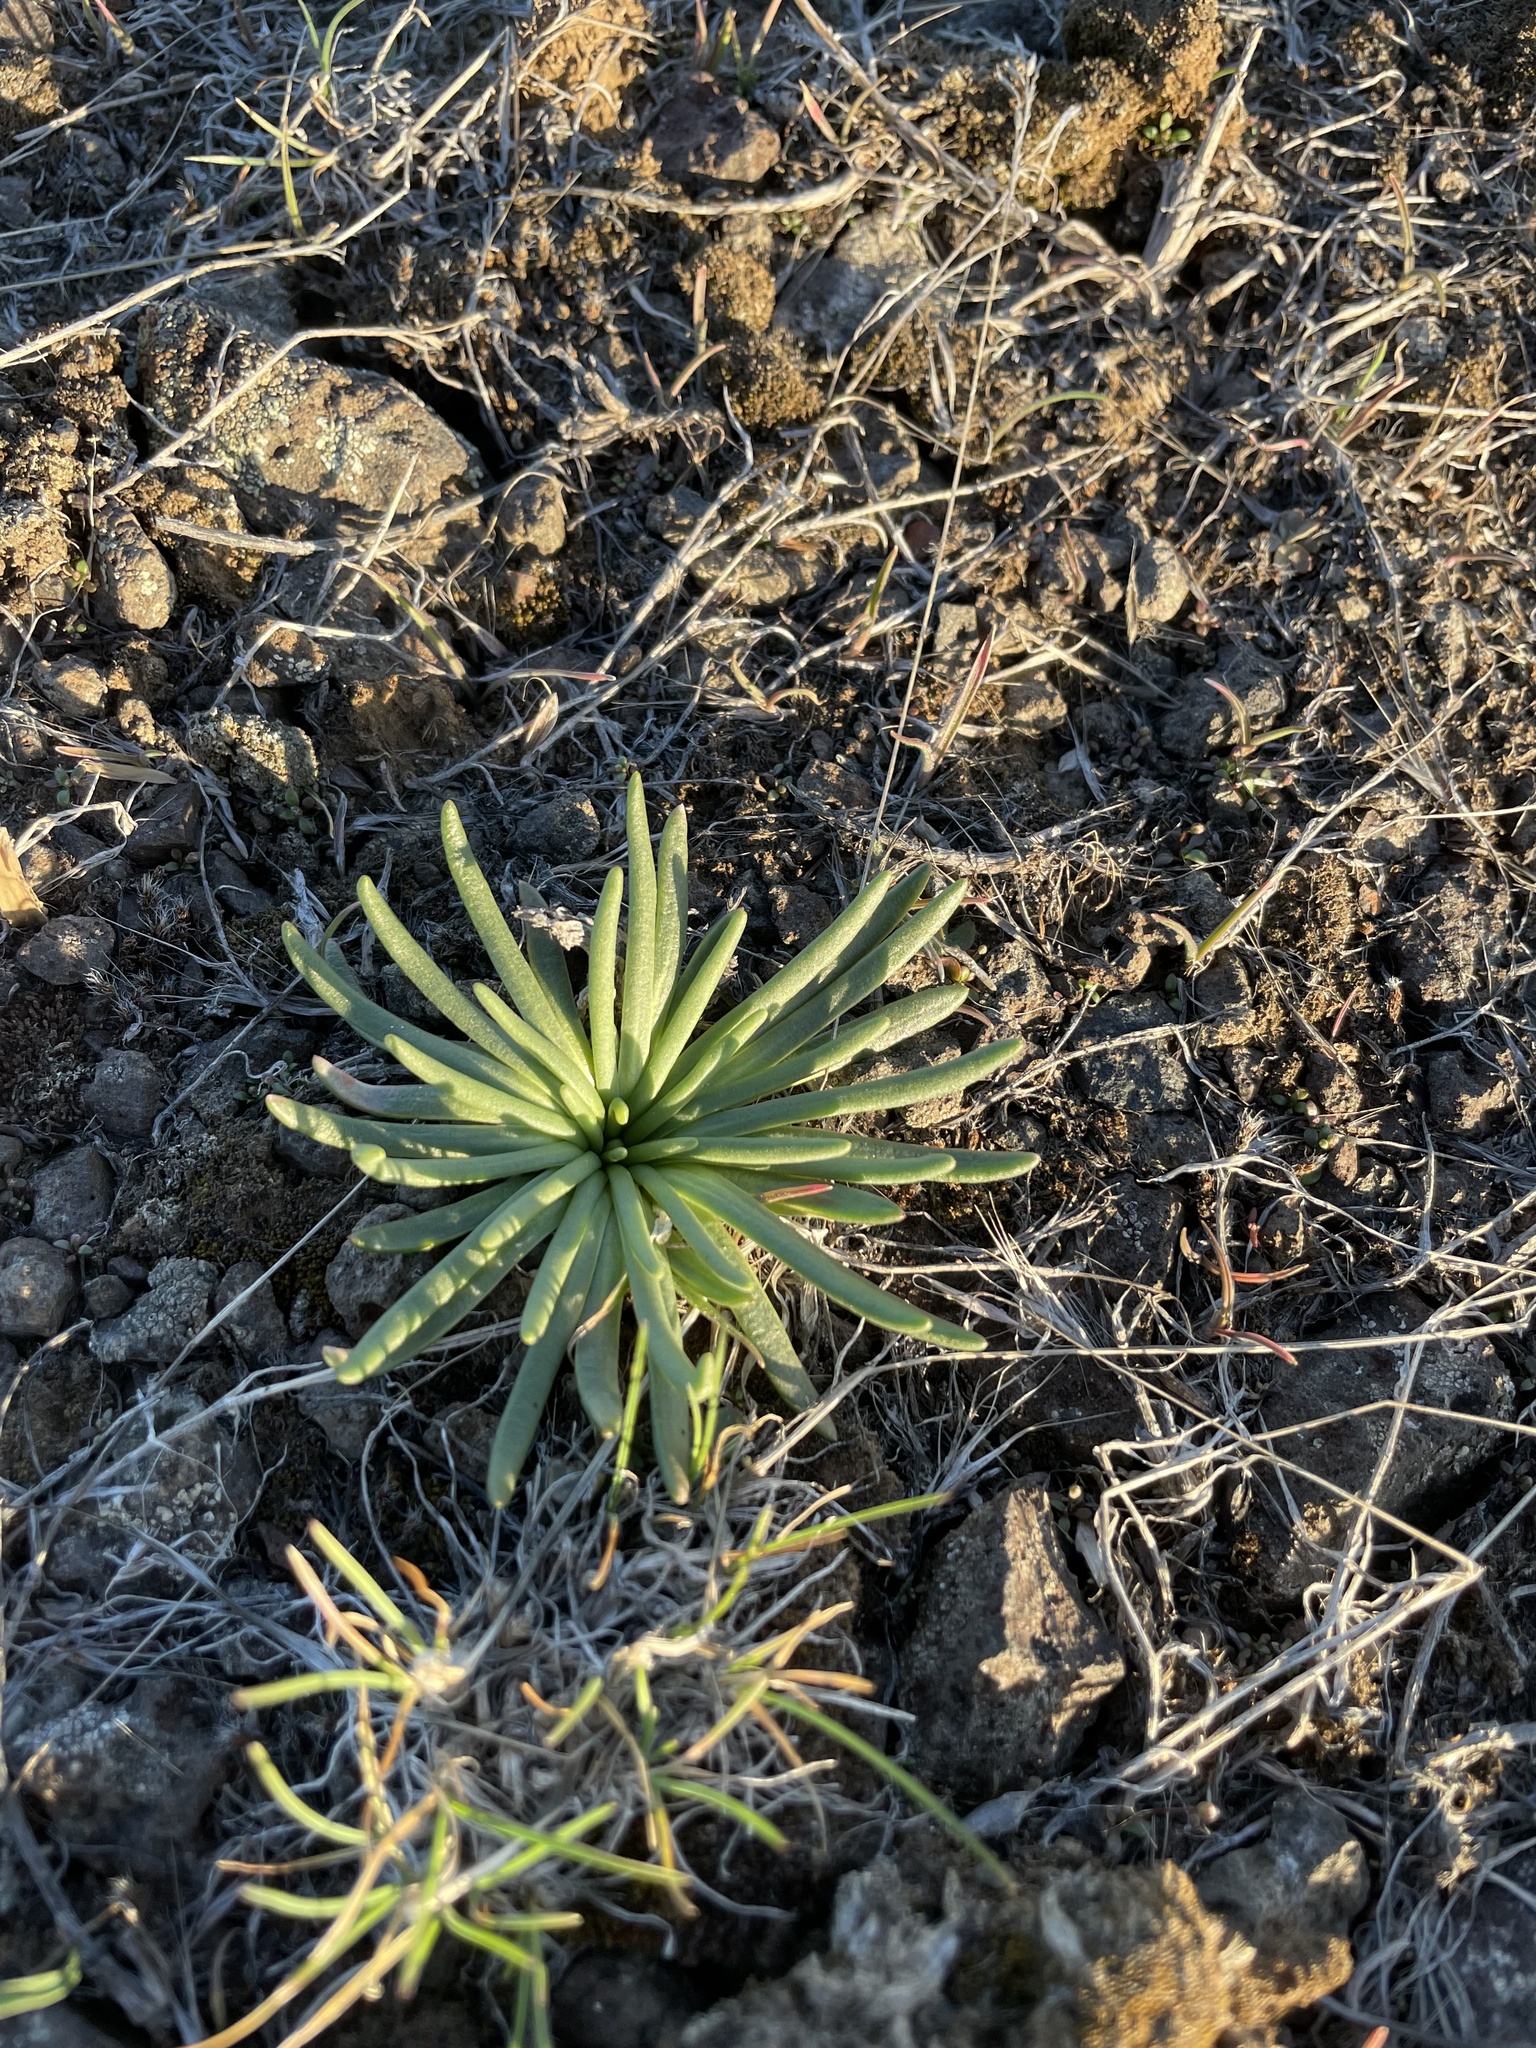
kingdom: Plantae
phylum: Tracheophyta
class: Magnoliopsida
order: Caryophyllales
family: Montiaceae
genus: Lewisia
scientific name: Lewisia rediviva
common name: Bitter-root
